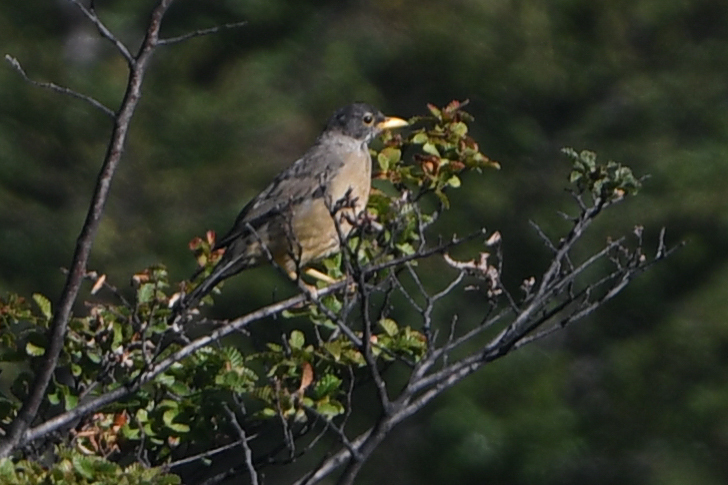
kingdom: Animalia
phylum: Chordata
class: Aves
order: Passeriformes
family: Turdidae
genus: Turdus
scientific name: Turdus falcklandii
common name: Austral thrush
